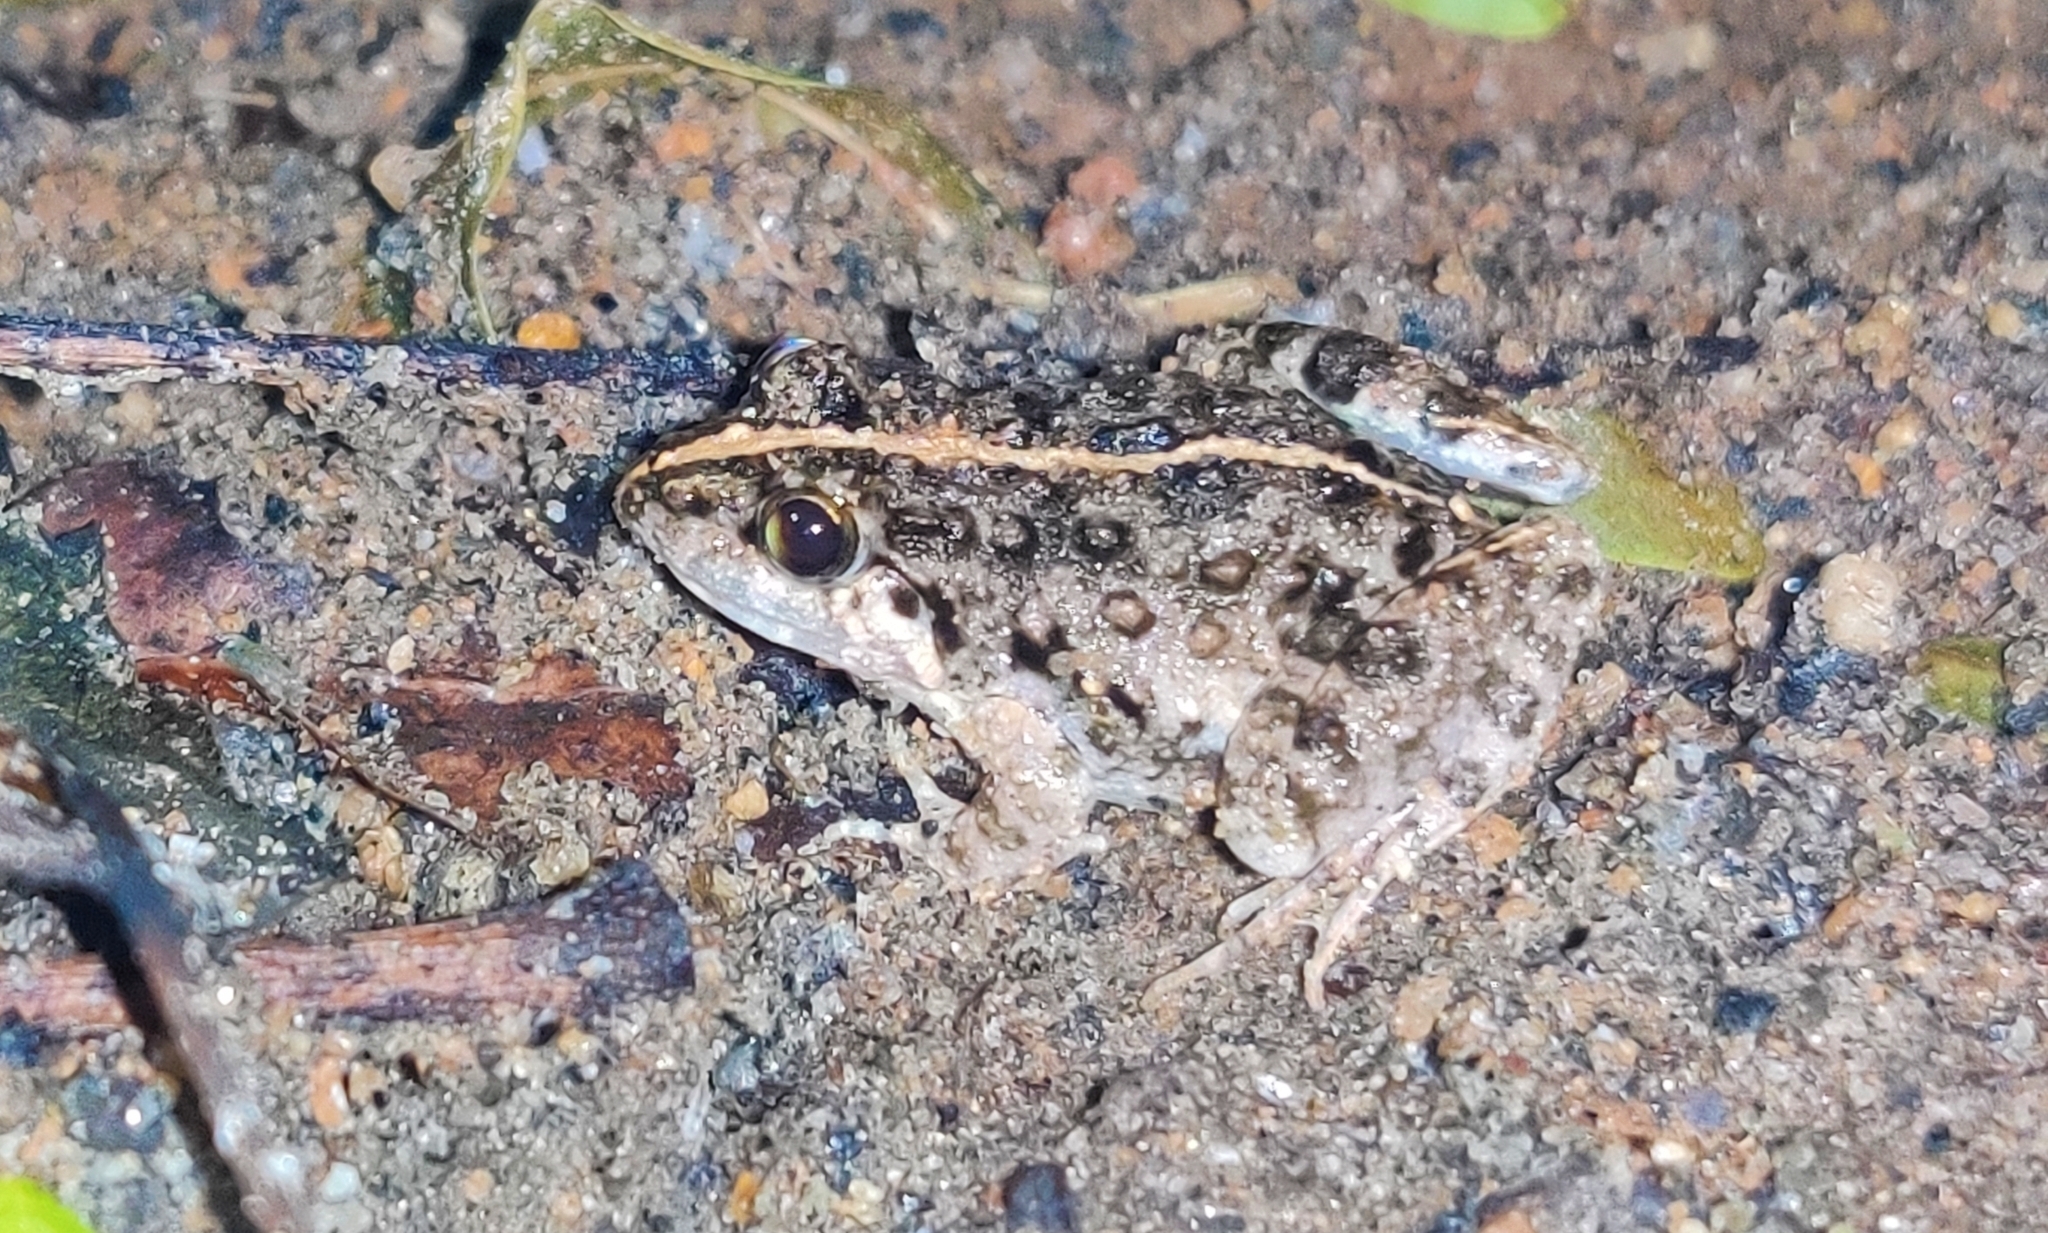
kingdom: Animalia
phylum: Chordata
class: Amphibia
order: Anura
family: Dicroglossidae
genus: Minervarya
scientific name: Minervarya agricola
